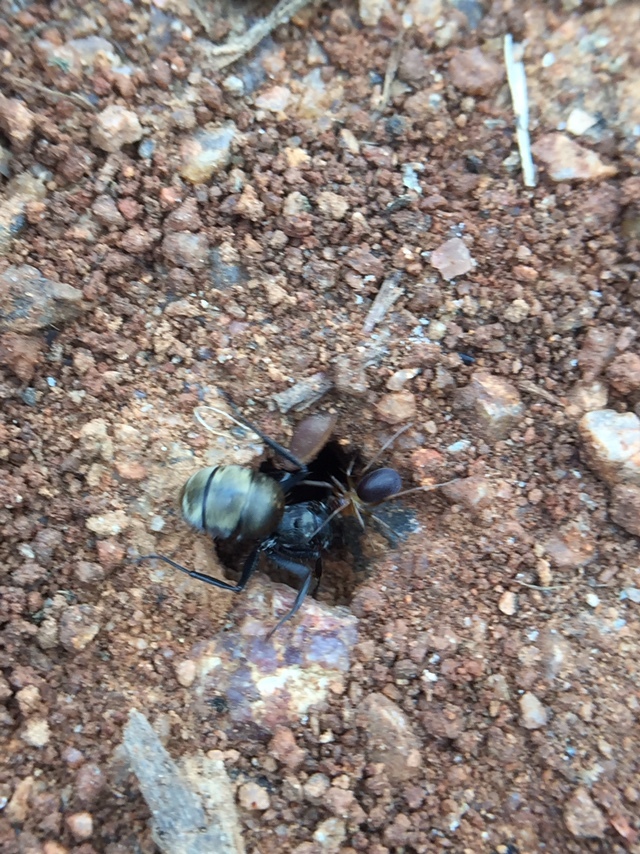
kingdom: Animalia
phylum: Arthropoda
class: Insecta
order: Hymenoptera
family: Formicidae
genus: Camponotus
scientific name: Camponotus sericeus
